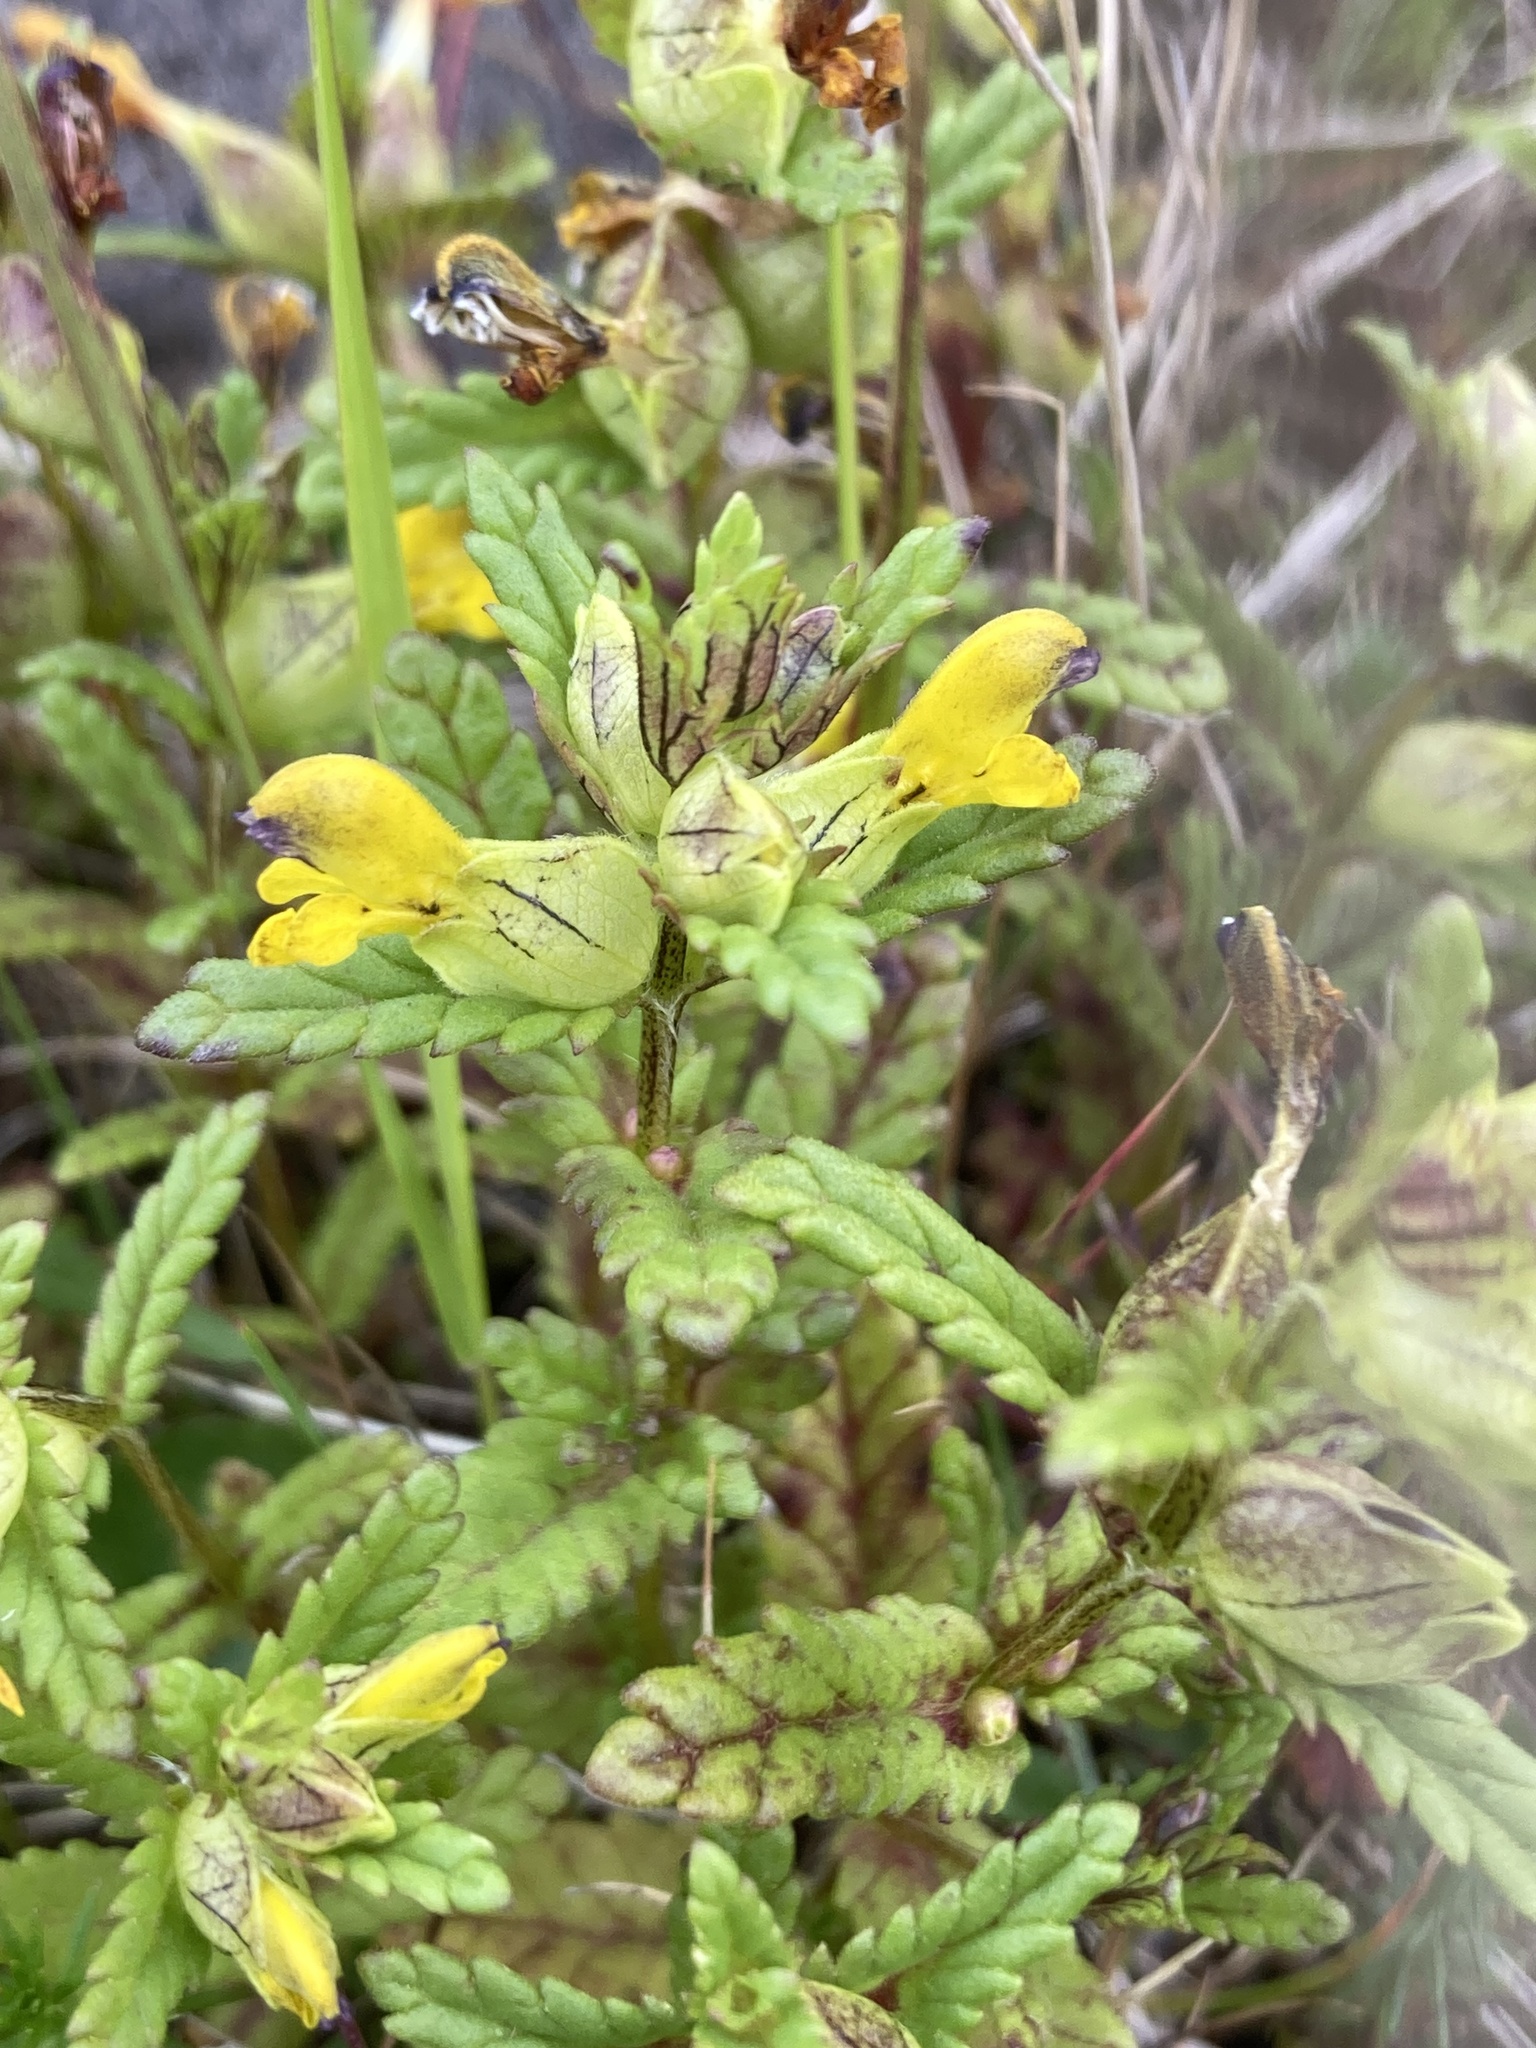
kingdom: Plantae
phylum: Tracheophyta
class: Magnoliopsida
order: Lamiales
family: Orobanchaceae
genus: Rhinanthus
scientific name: Rhinanthus minor
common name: Yellow-rattle
